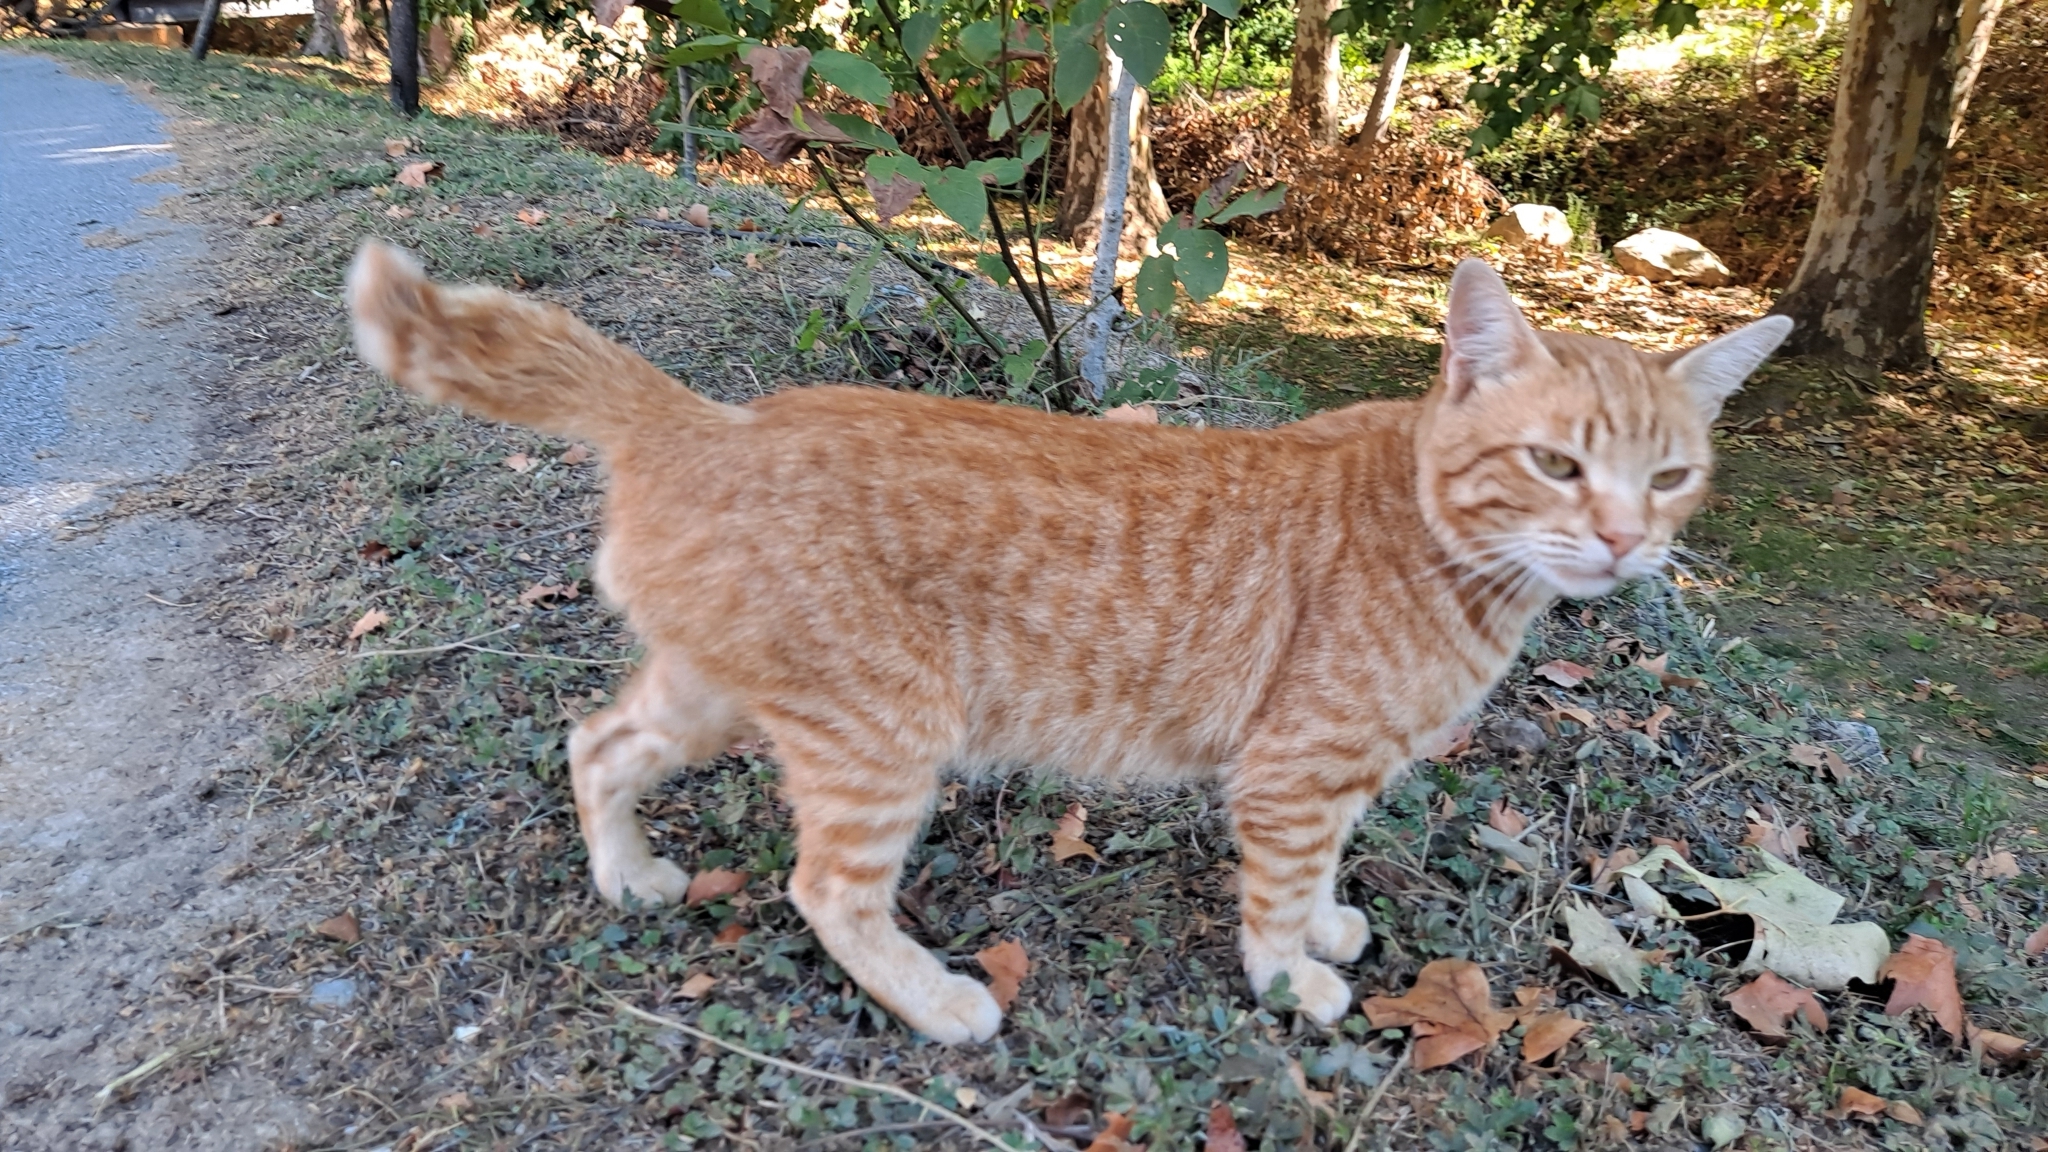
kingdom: Animalia
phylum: Chordata
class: Mammalia
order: Carnivora
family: Felidae
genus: Felis
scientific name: Felis catus
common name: Domestic cat
